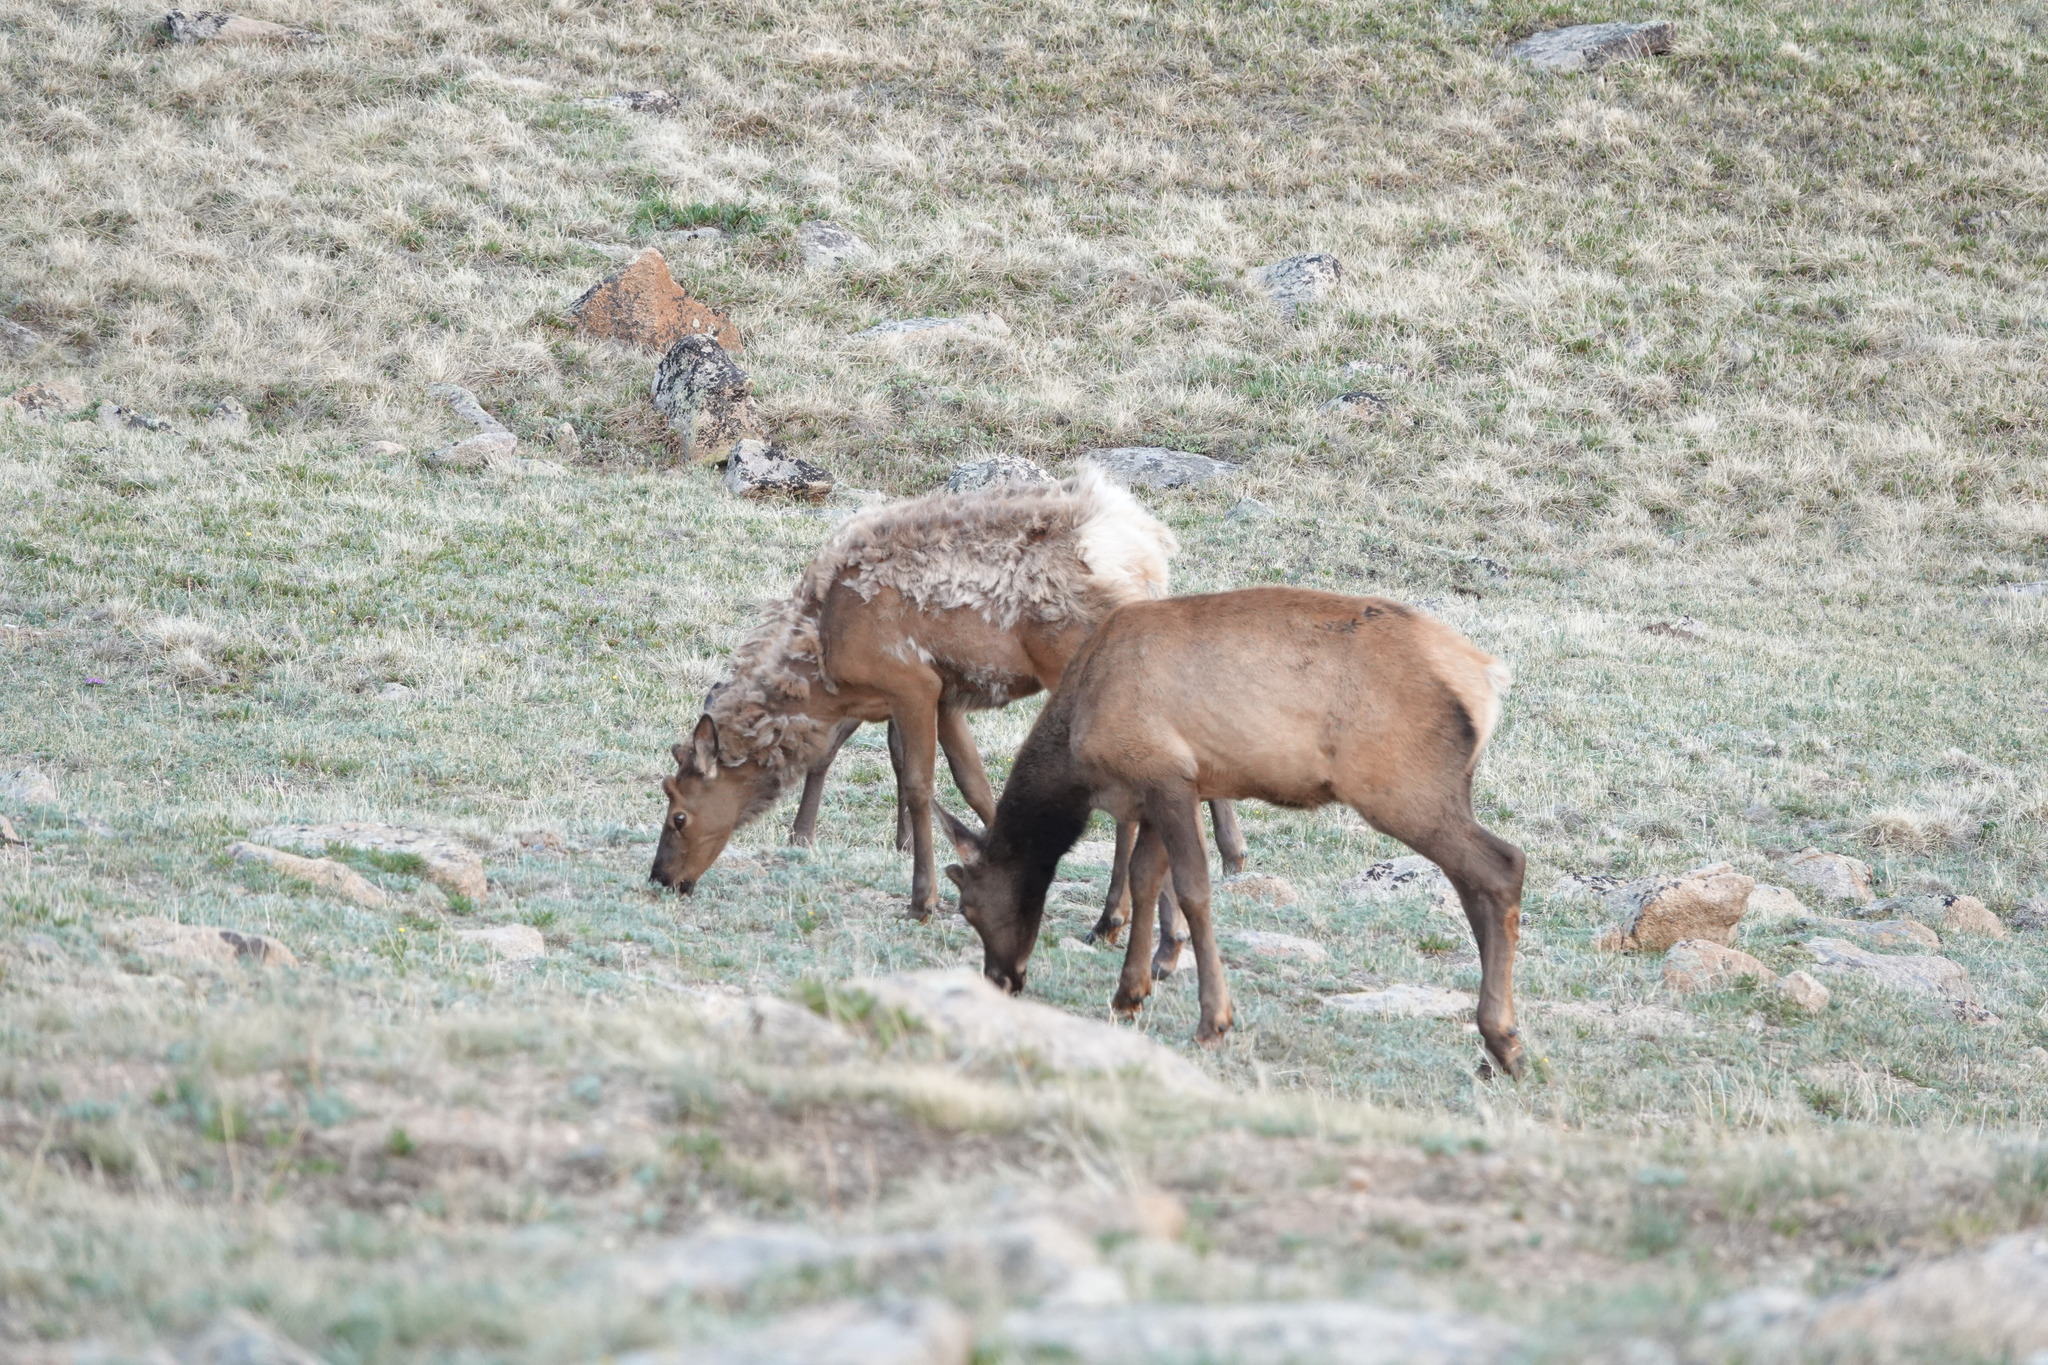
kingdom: Animalia
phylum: Chordata
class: Mammalia
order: Artiodactyla
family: Cervidae
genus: Cervus
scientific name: Cervus elaphus
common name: Red deer
